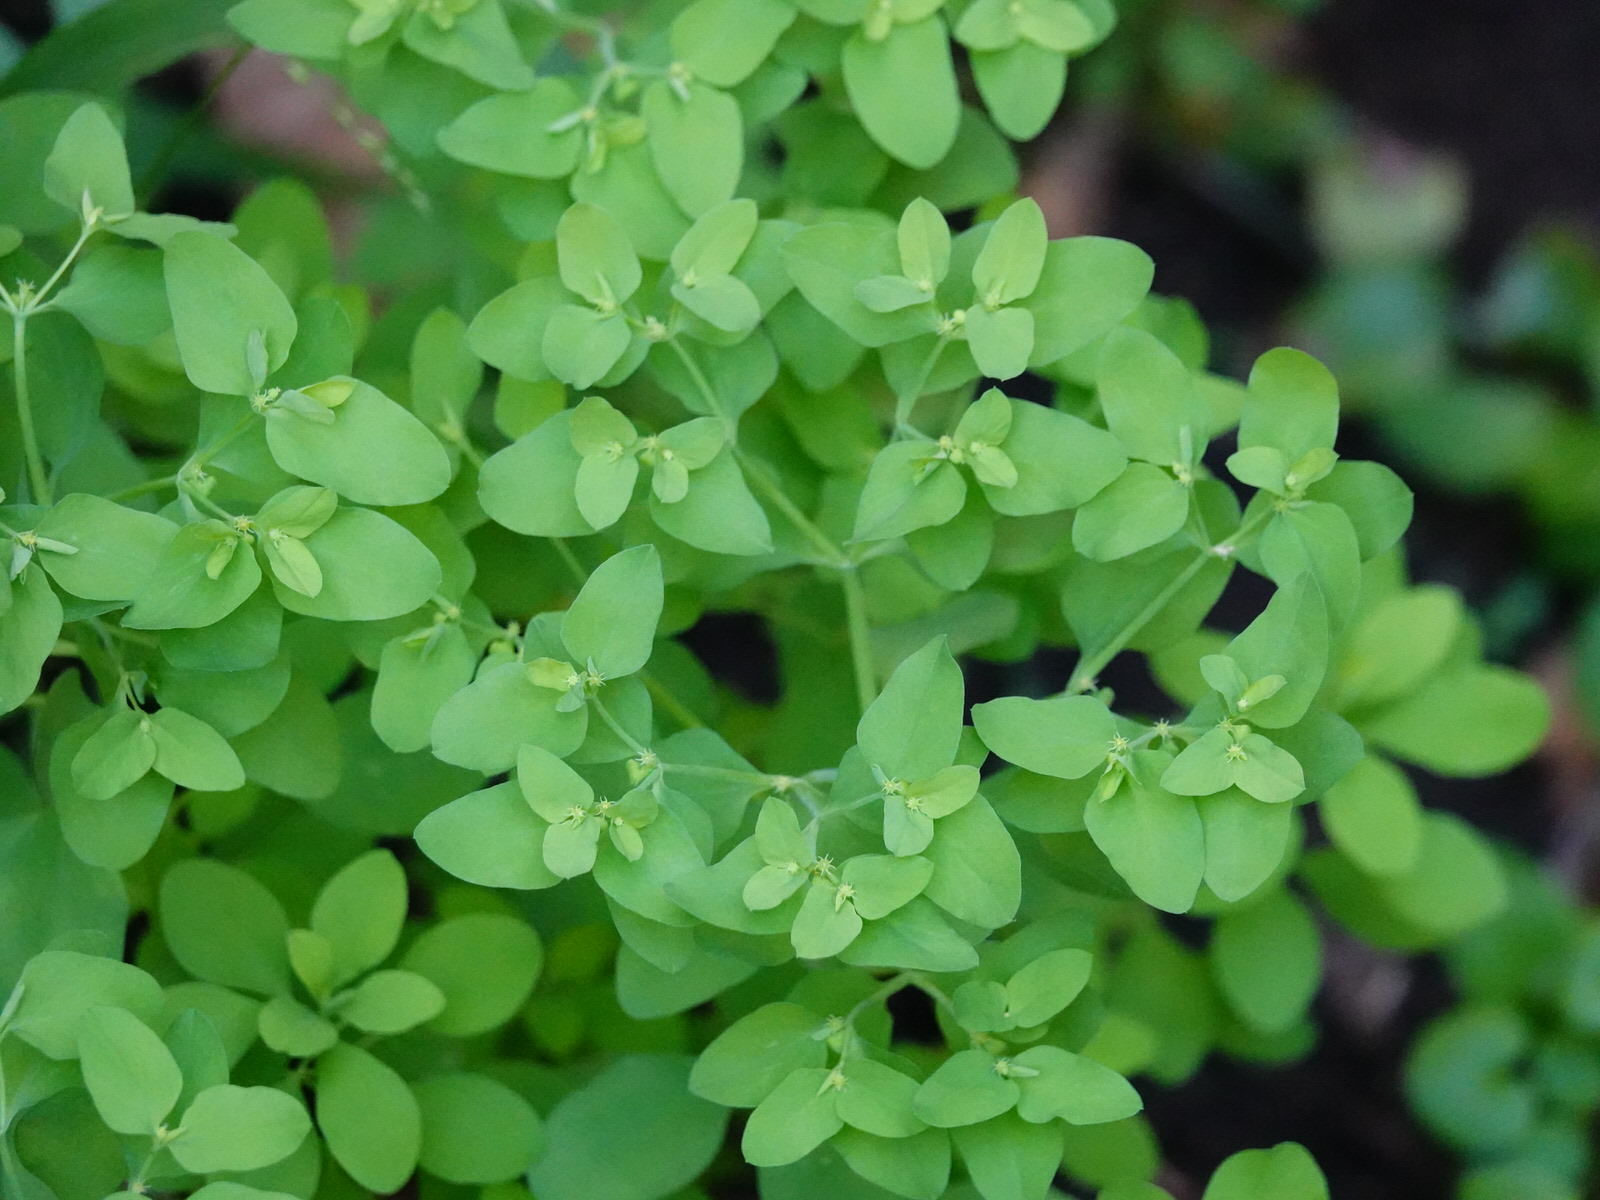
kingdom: Plantae
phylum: Tracheophyta
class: Magnoliopsida
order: Malpighiales
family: Euphorbiaceae
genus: Euphorbia
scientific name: Euphorbia peplus
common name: Petty spurge
